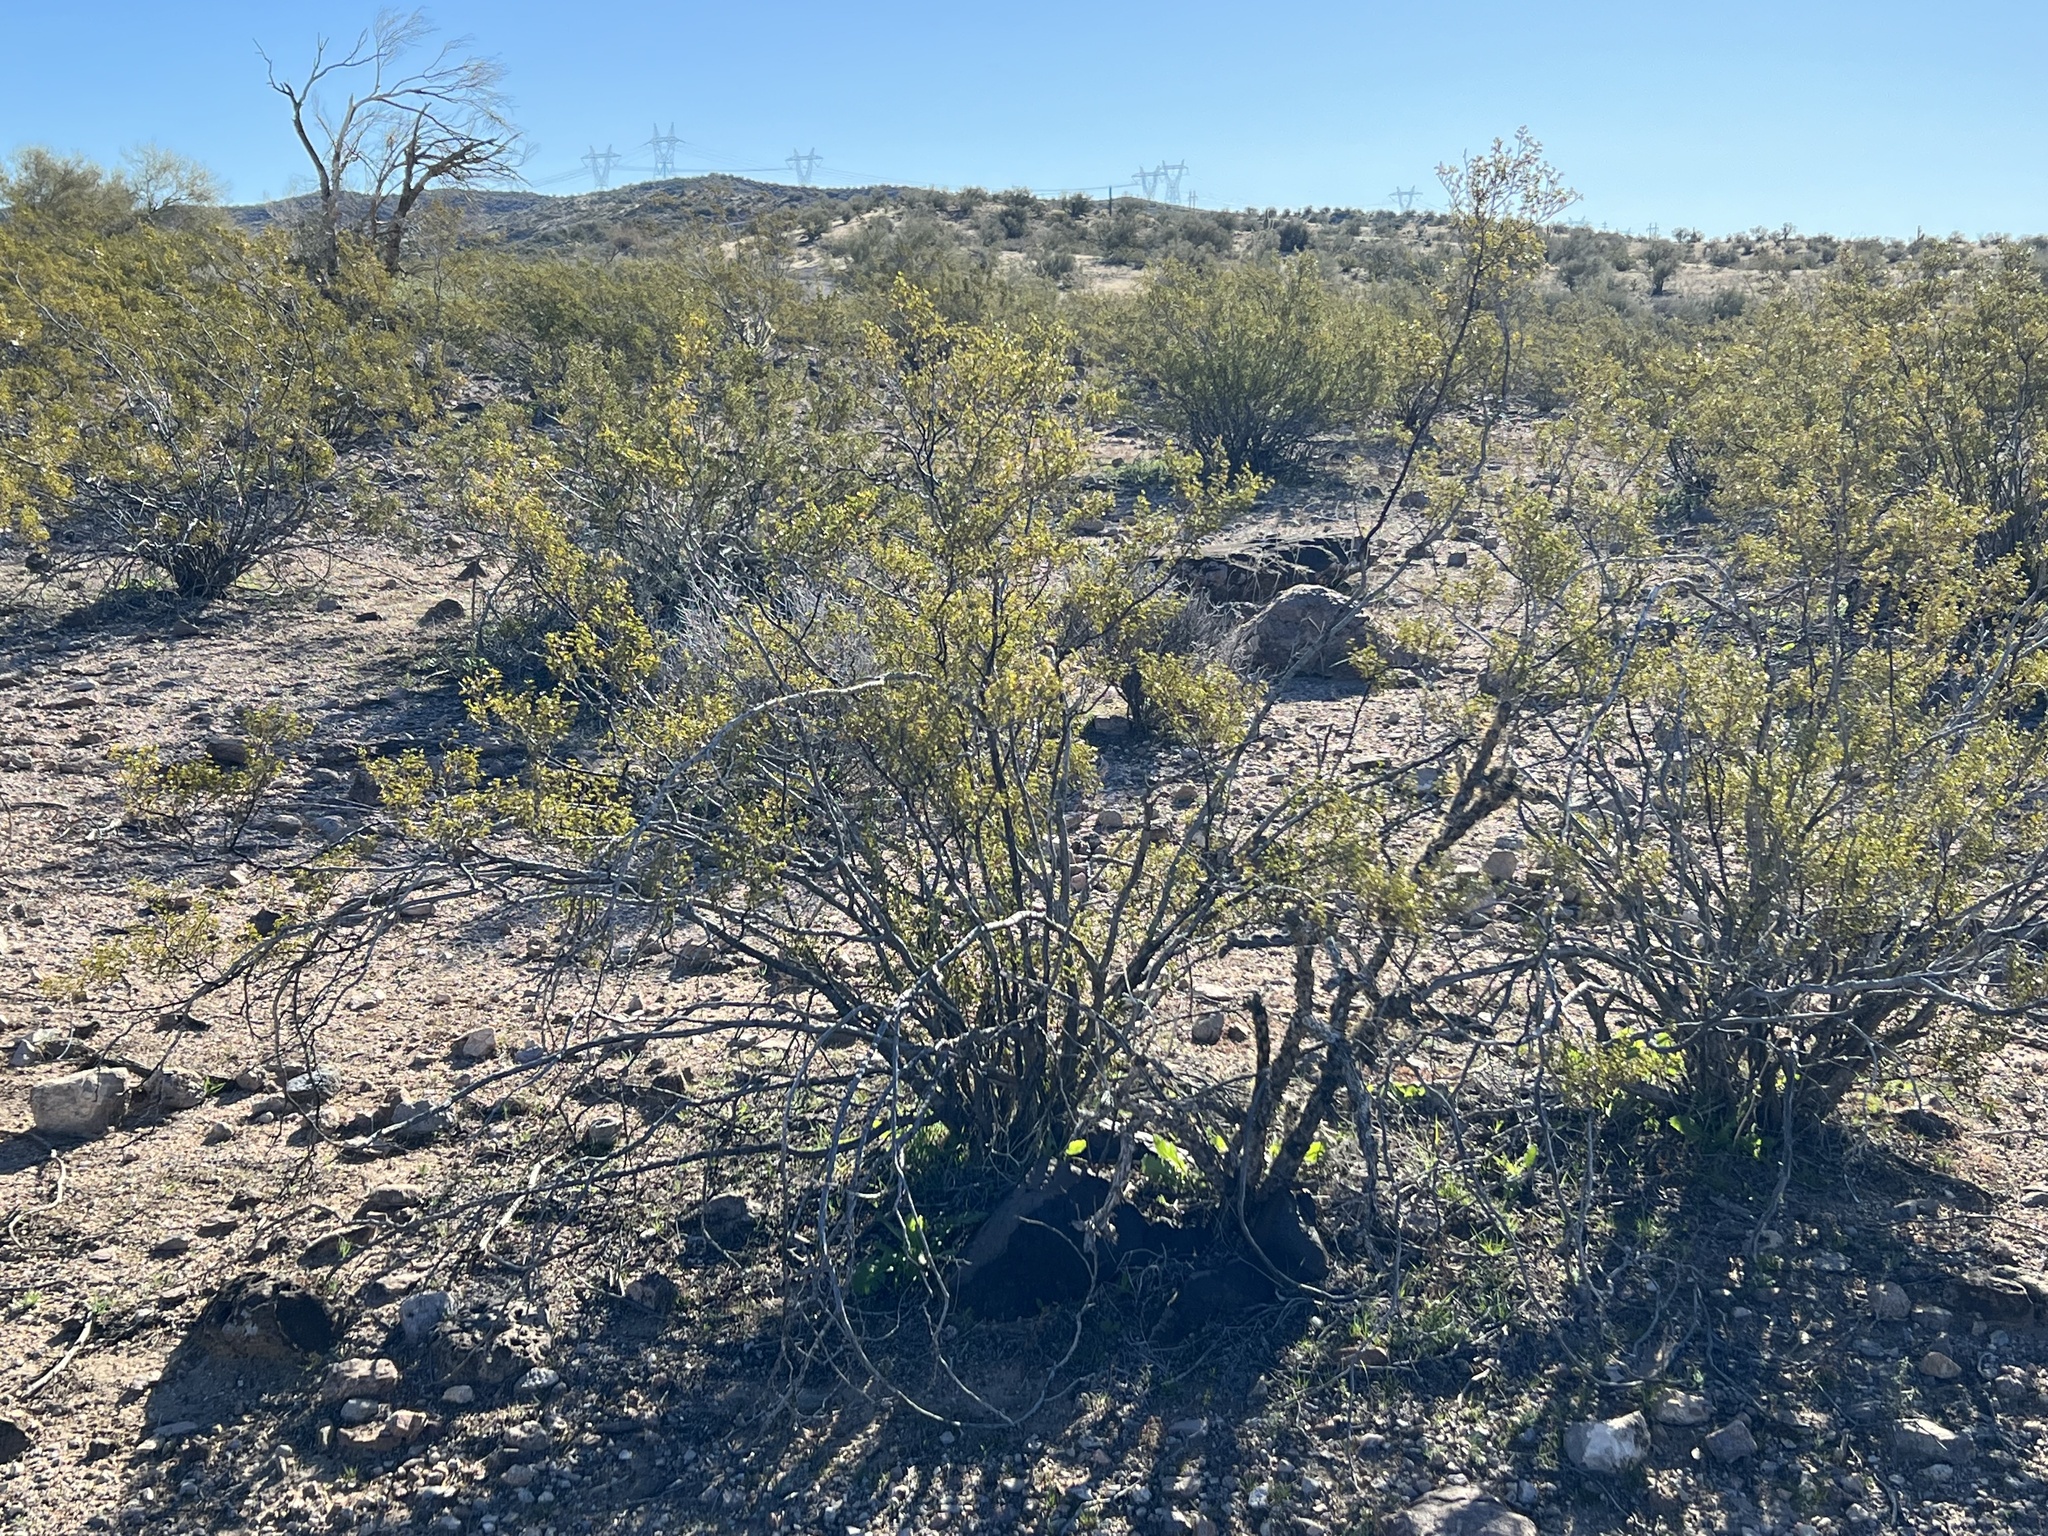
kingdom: Plantae
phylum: Tracheophyta
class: Magnoliopsida
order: Zygophyllales
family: Zygophyllaceae
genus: Larrea
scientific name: Larrea tridentata
